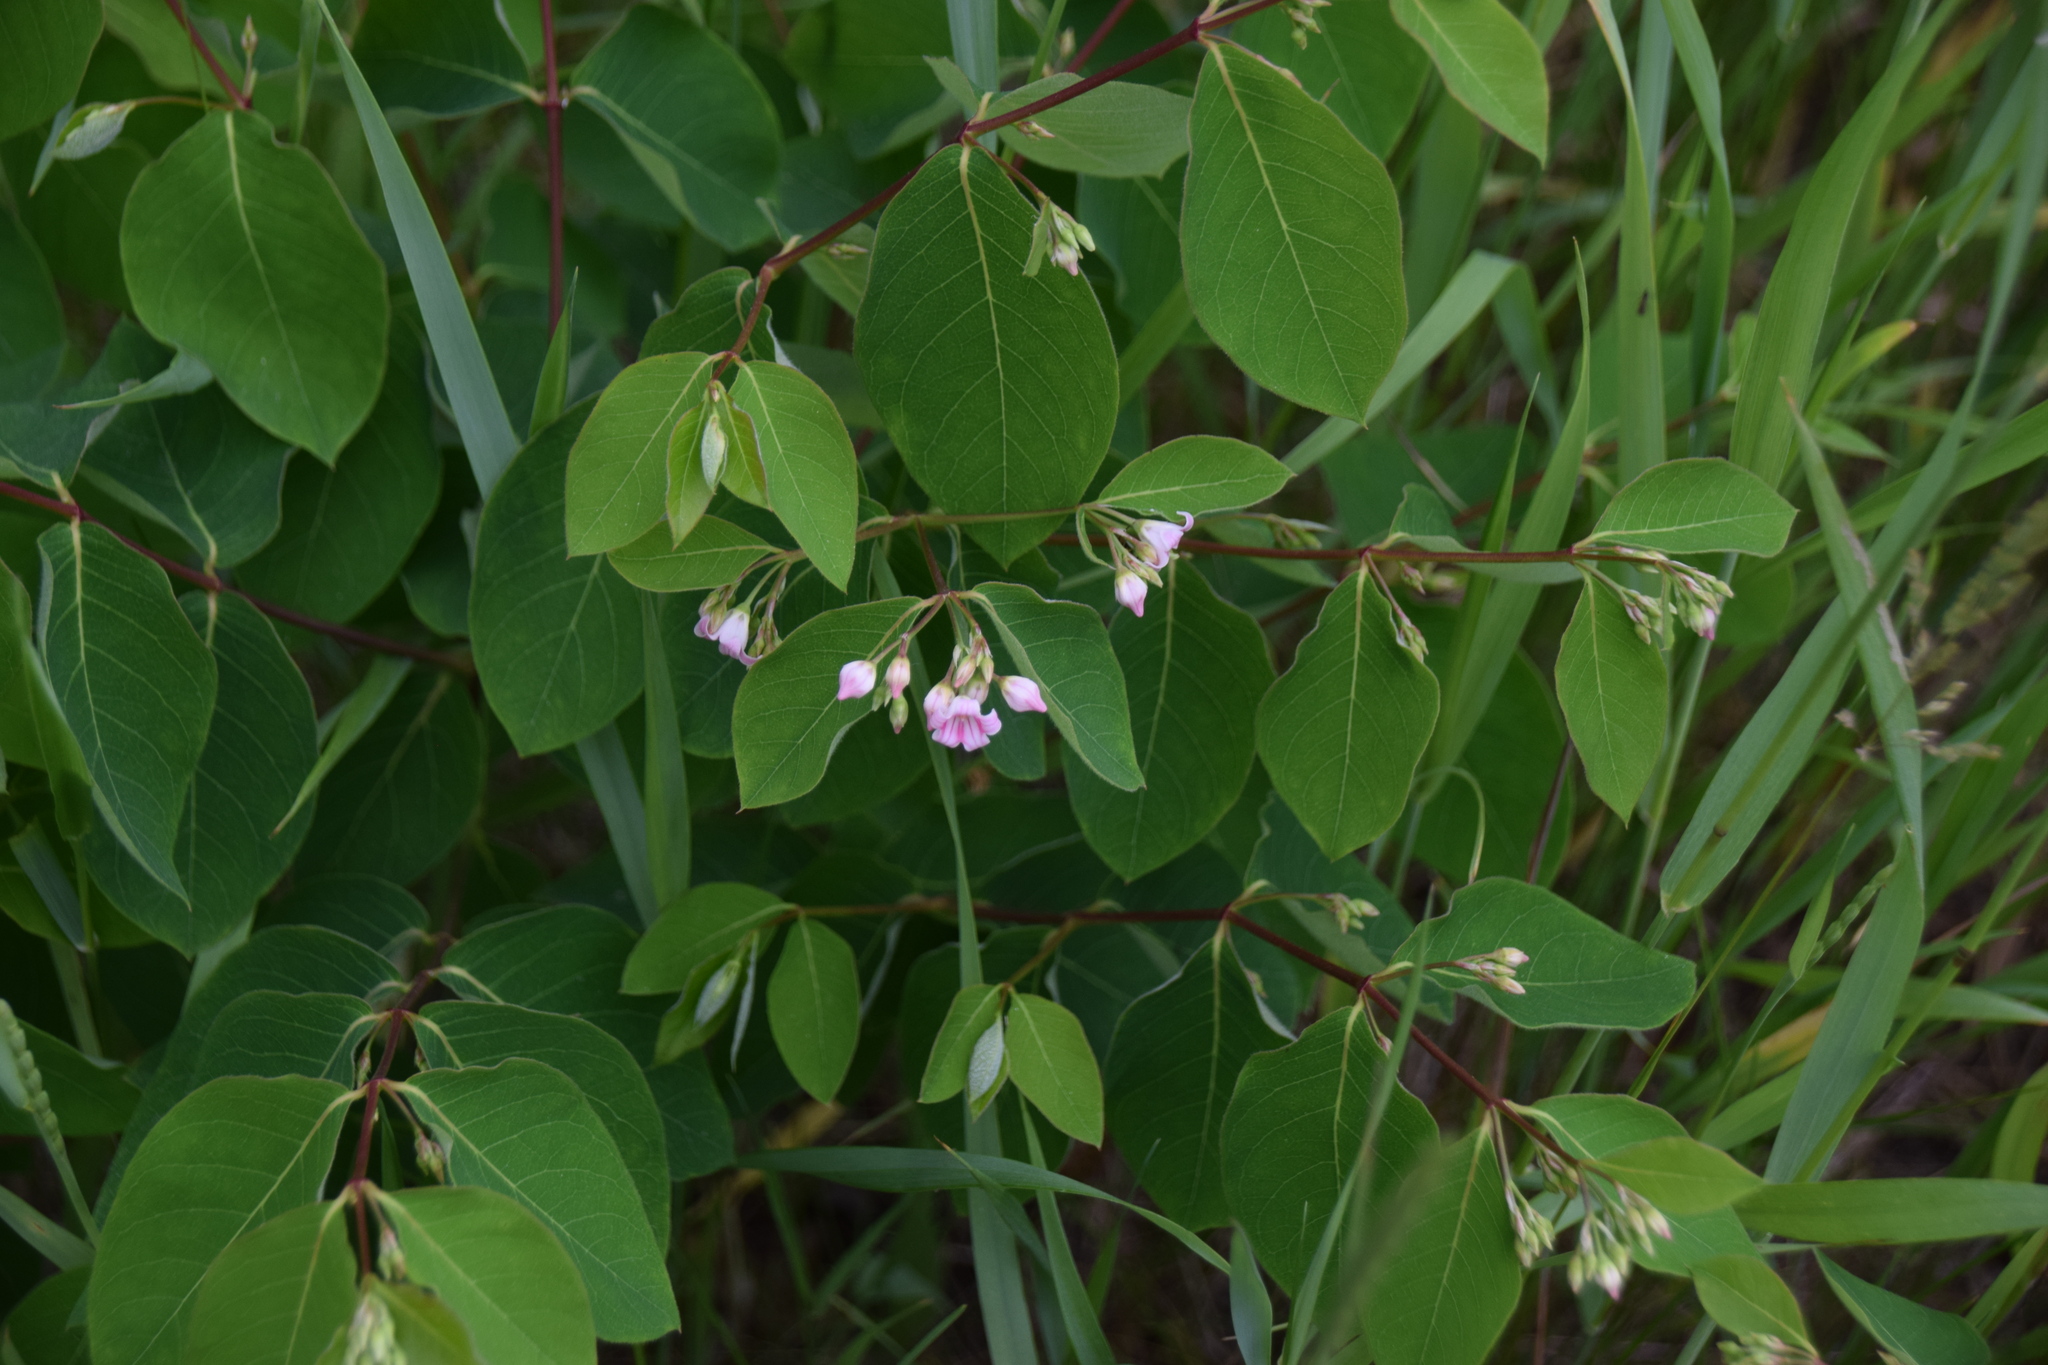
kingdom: Plantae
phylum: Tracheophyta
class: Magnoliopsida
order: Gentianales
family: Apocynaceae
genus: Apocynum
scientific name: Apocynum androsaemifolium
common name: Spreading dogbane
